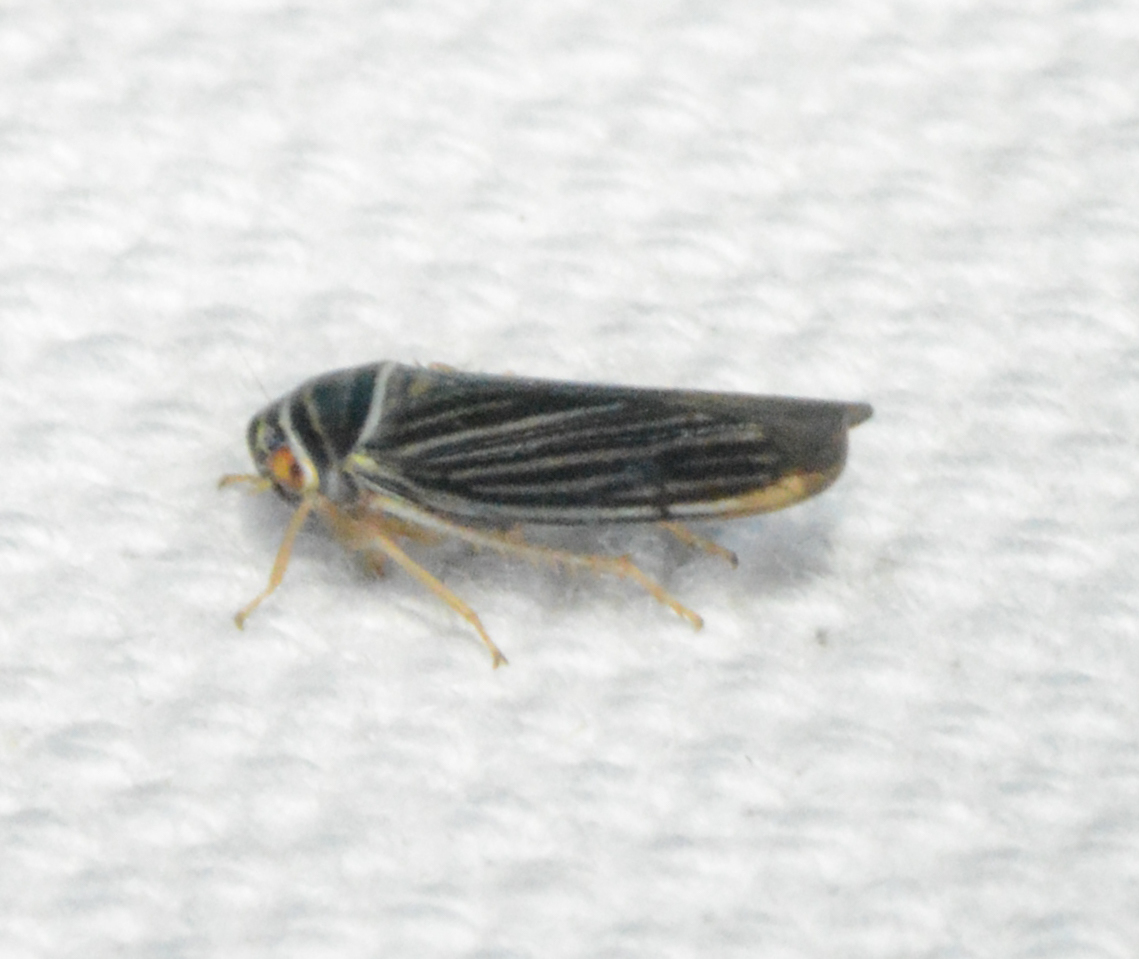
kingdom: Animalia
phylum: Arthropoda
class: Insecta
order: Hemiptera
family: Cicadellidae
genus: Tylozygus
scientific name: Tylozygus bifidus
